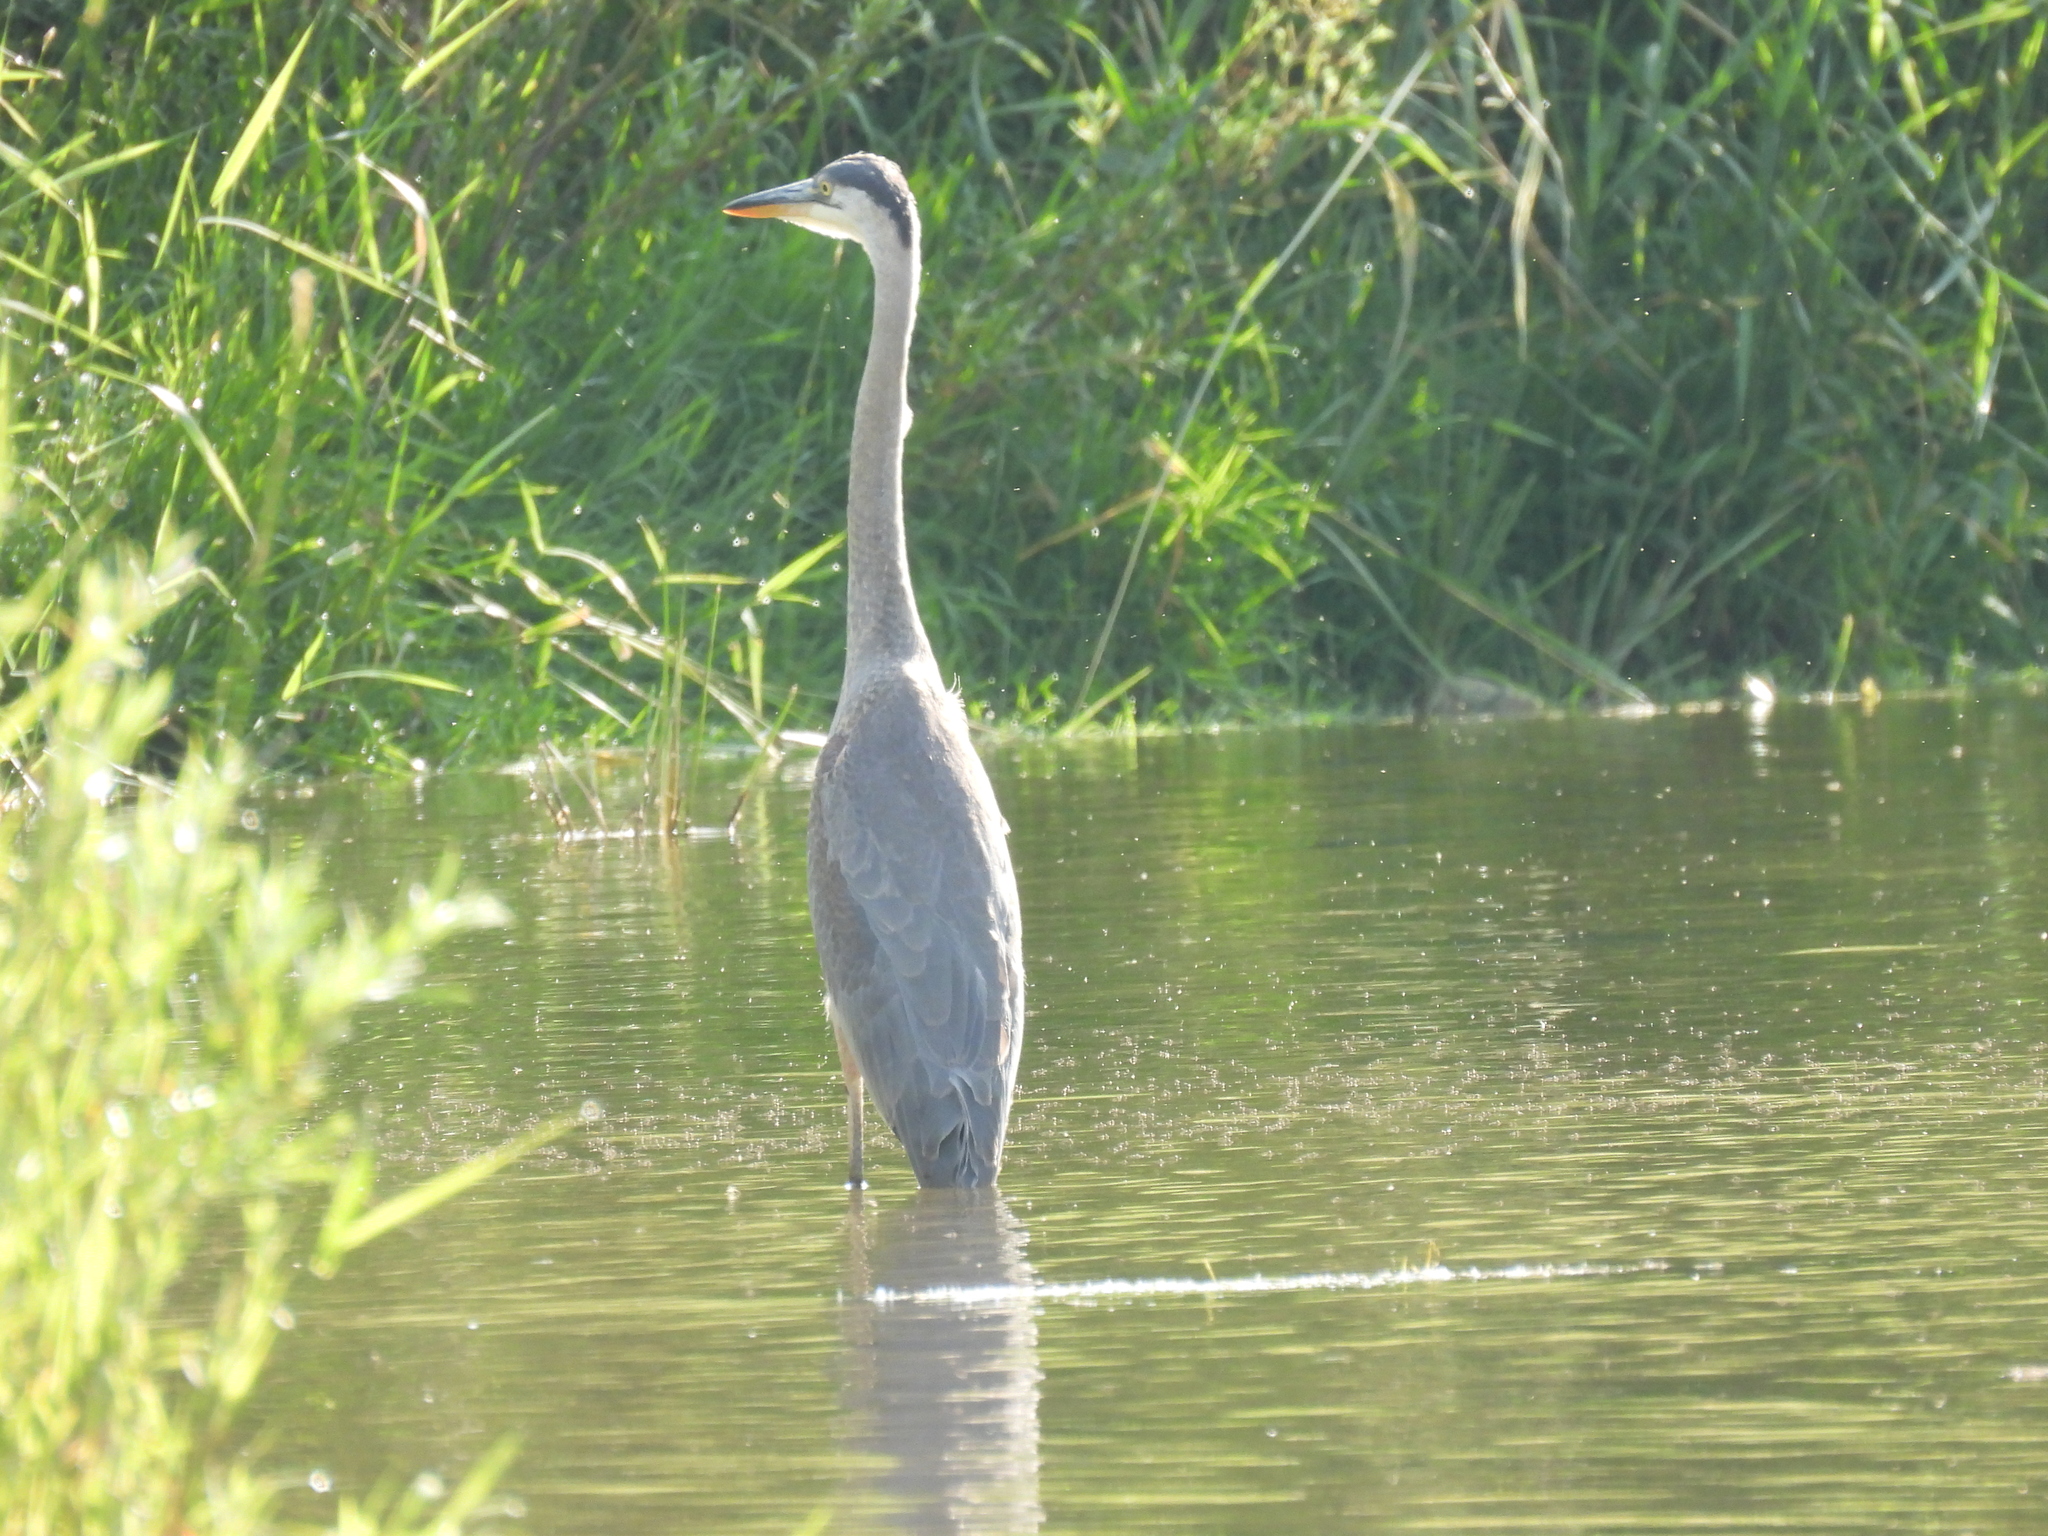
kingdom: Animalia
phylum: Chordata
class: Aves
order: Pelecaniformes
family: Ardeidae
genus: Ardea
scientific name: Ardea herodias
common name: Great blue heron
